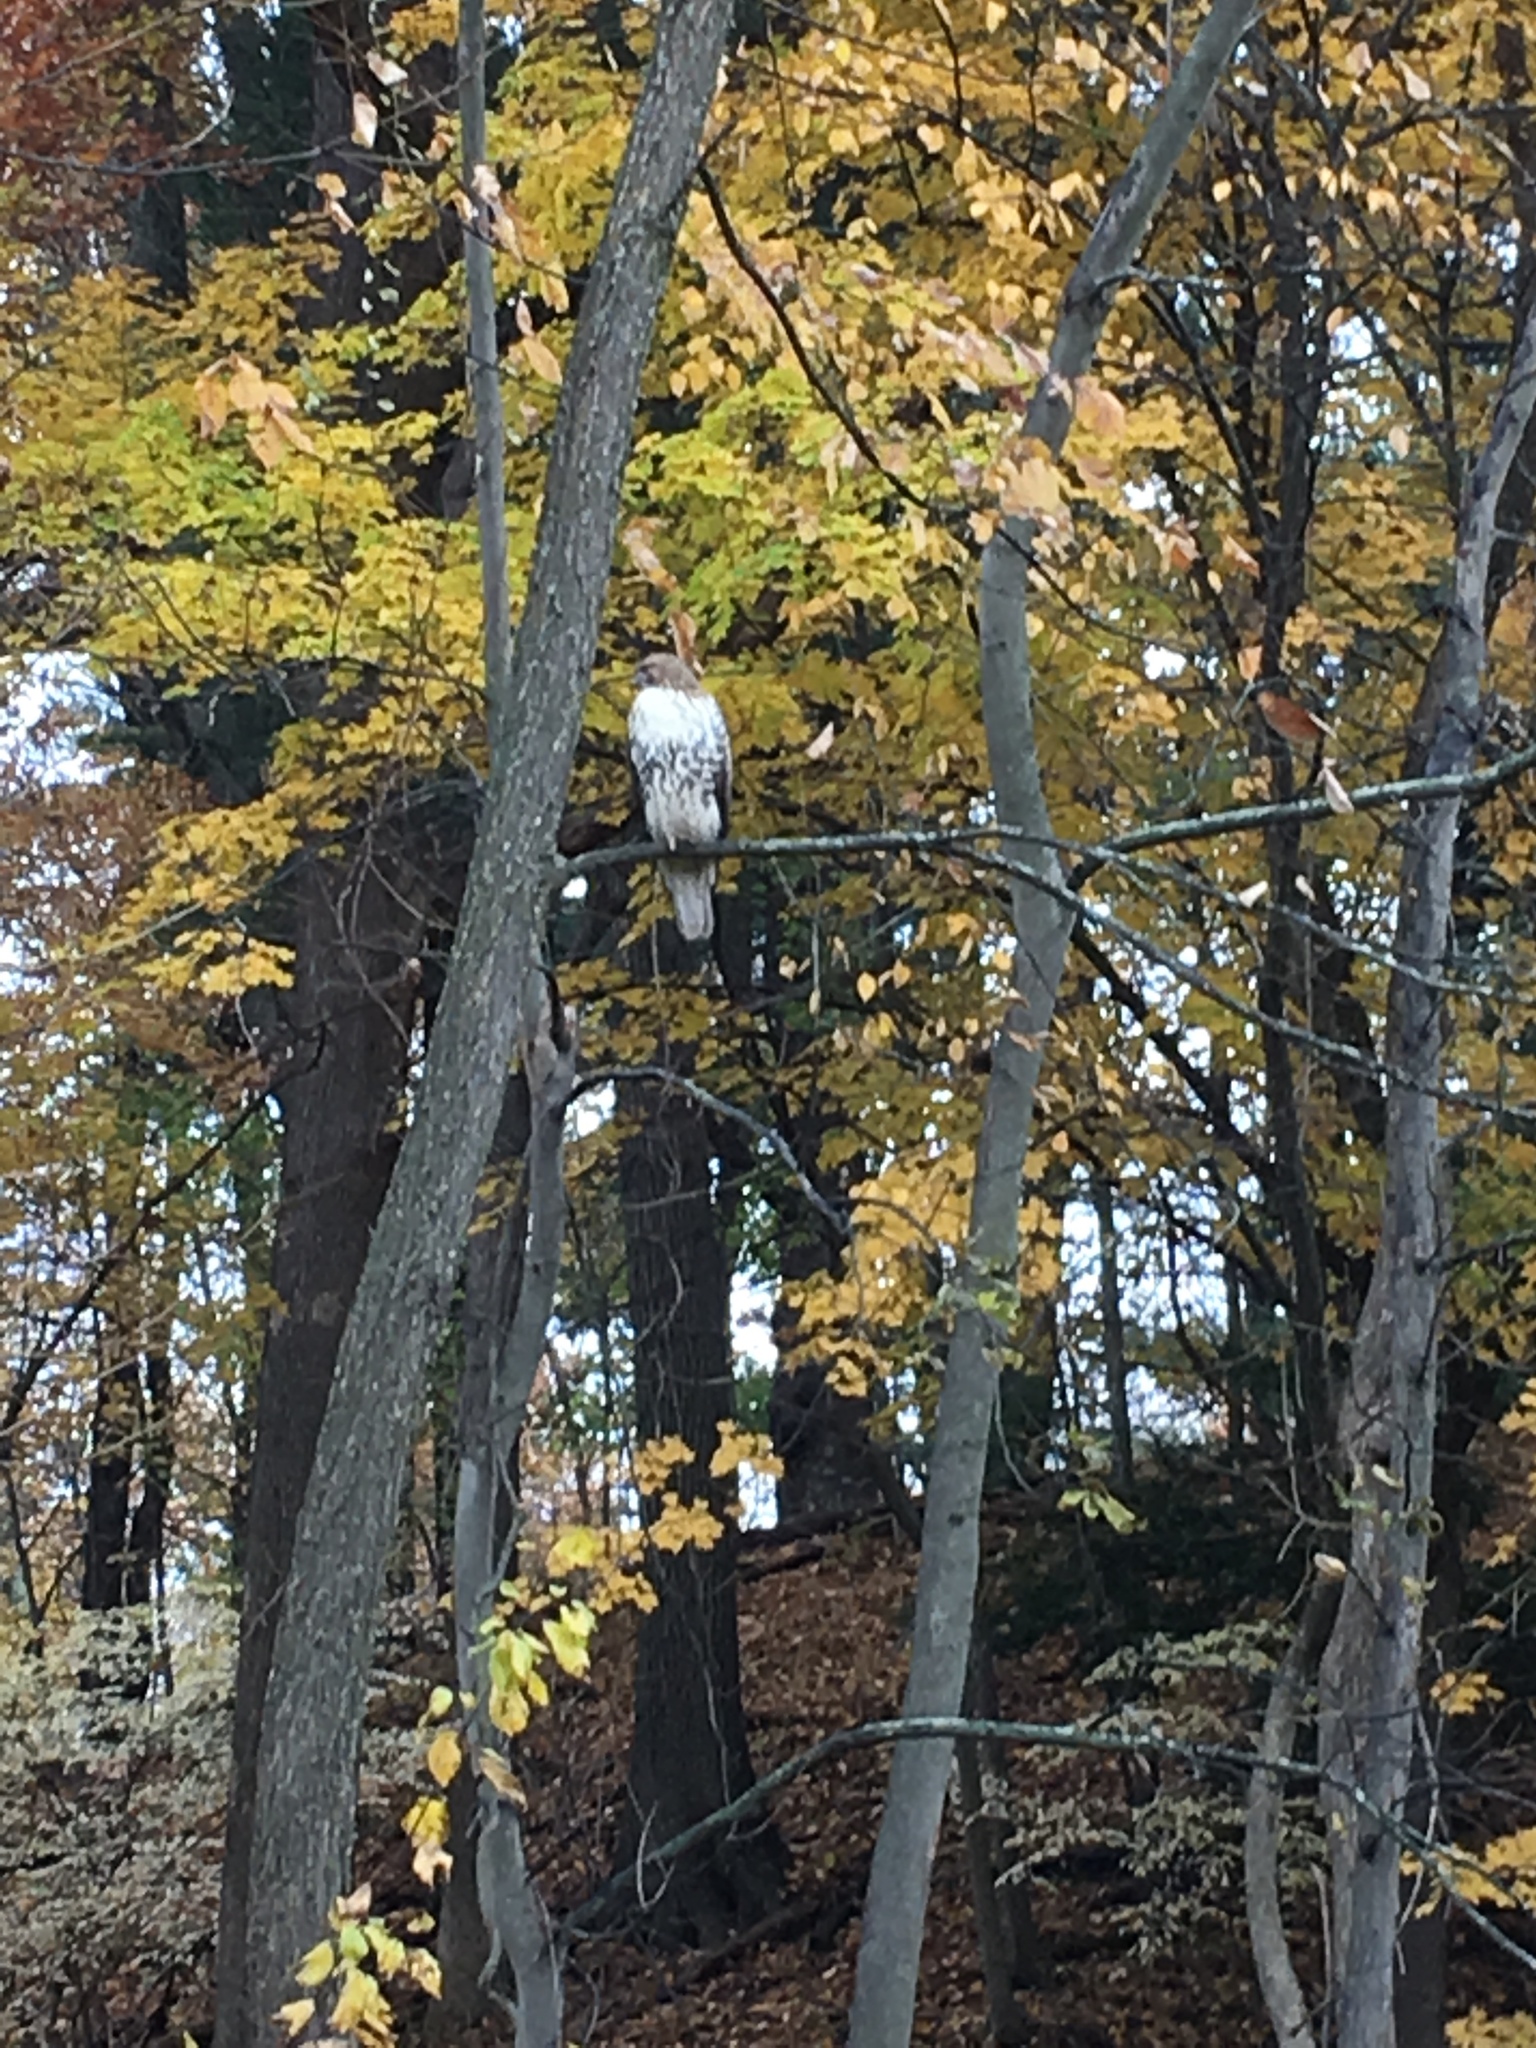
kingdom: Animalia
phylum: Chordata
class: Aves
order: Accipitriformes
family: Accipitridae
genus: Buteo
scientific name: Buteo jamaicensis
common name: Red-tailed hawk
